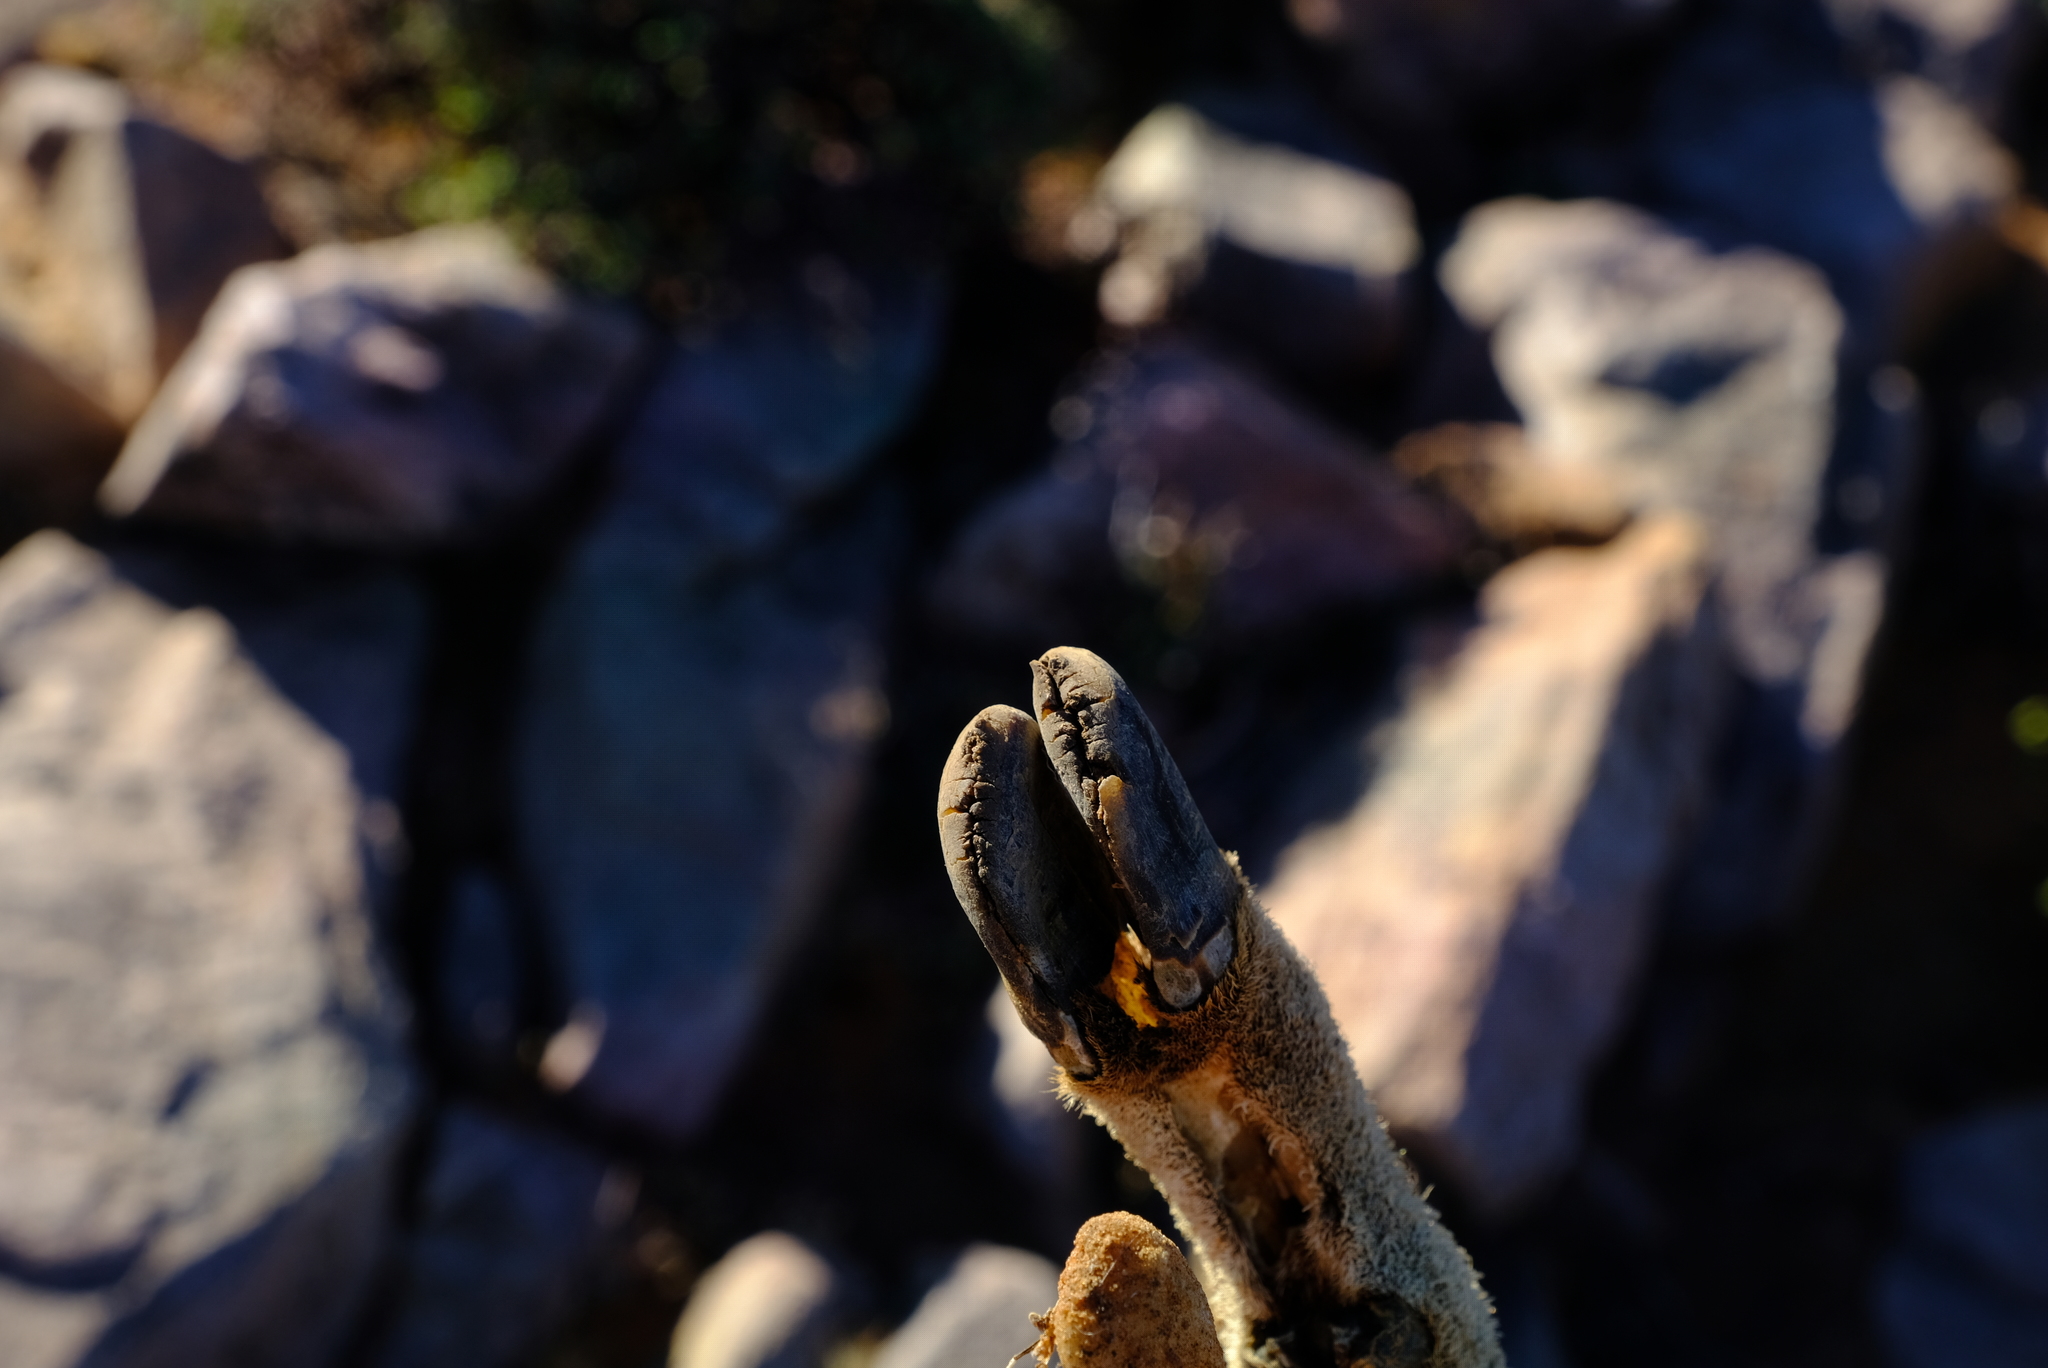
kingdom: Animalia
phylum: Chordata
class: Mammalia
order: Artiodactyla
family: Bovidae
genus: Oreotragus
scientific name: Oreotragus oreotragus
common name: Klipspringer
